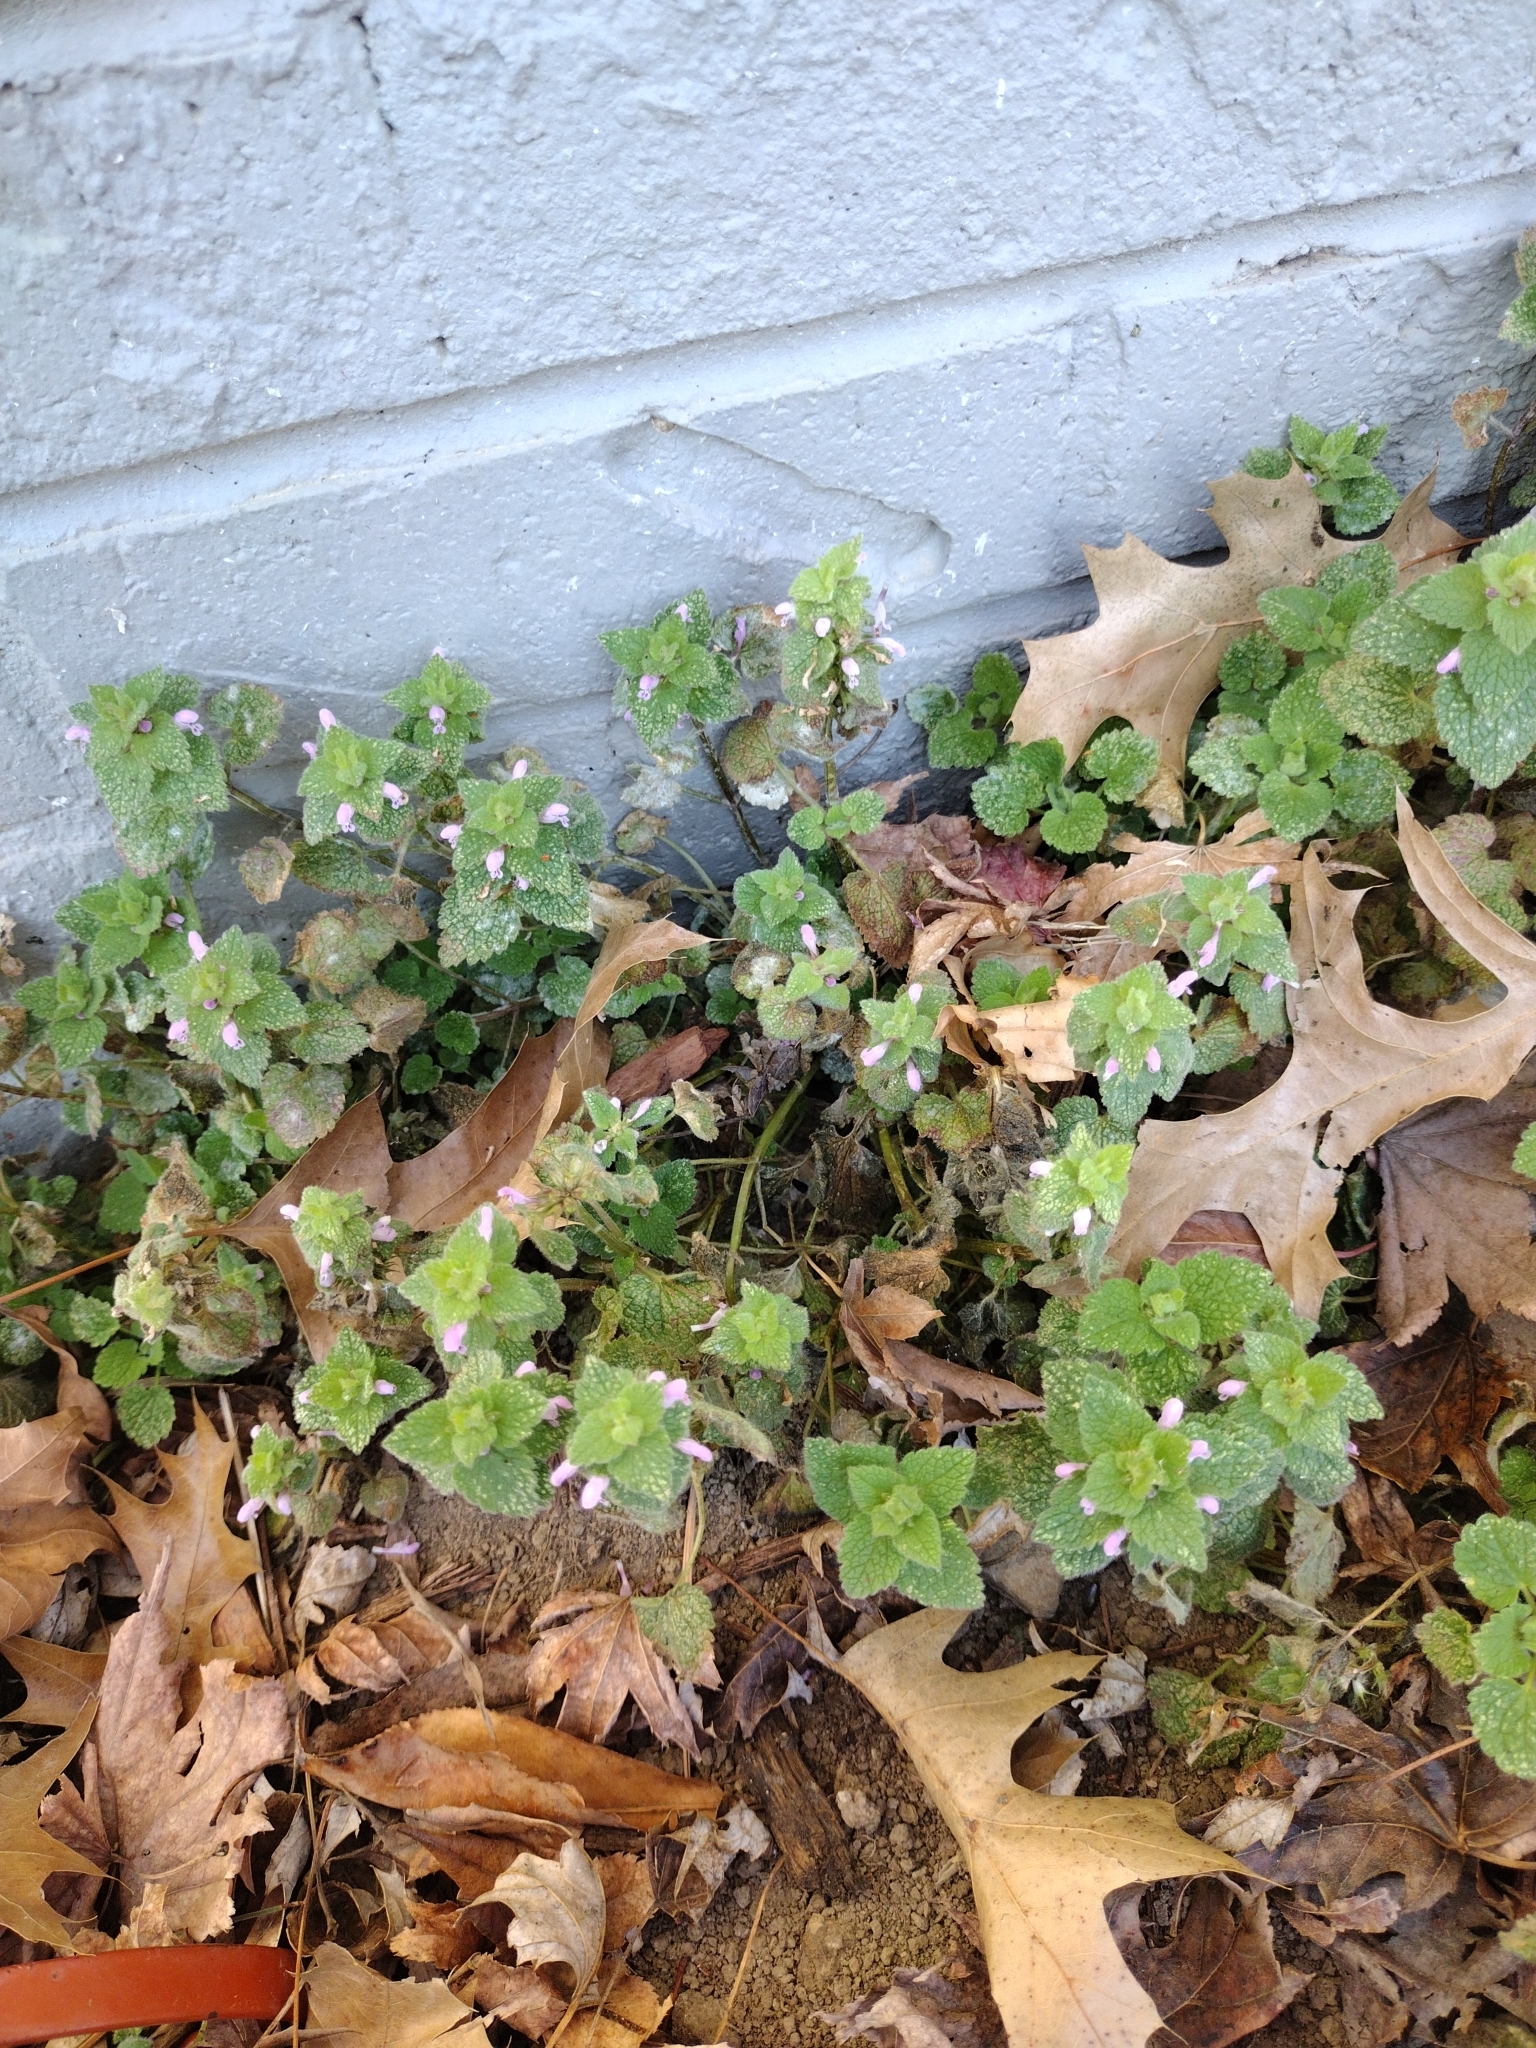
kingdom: Plantae
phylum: Tracheophyta
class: Magnoliopsida
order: Lamiales
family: Lamiaceae
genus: Lamium
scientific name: Lamium purpureum
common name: Red dead-nettle
